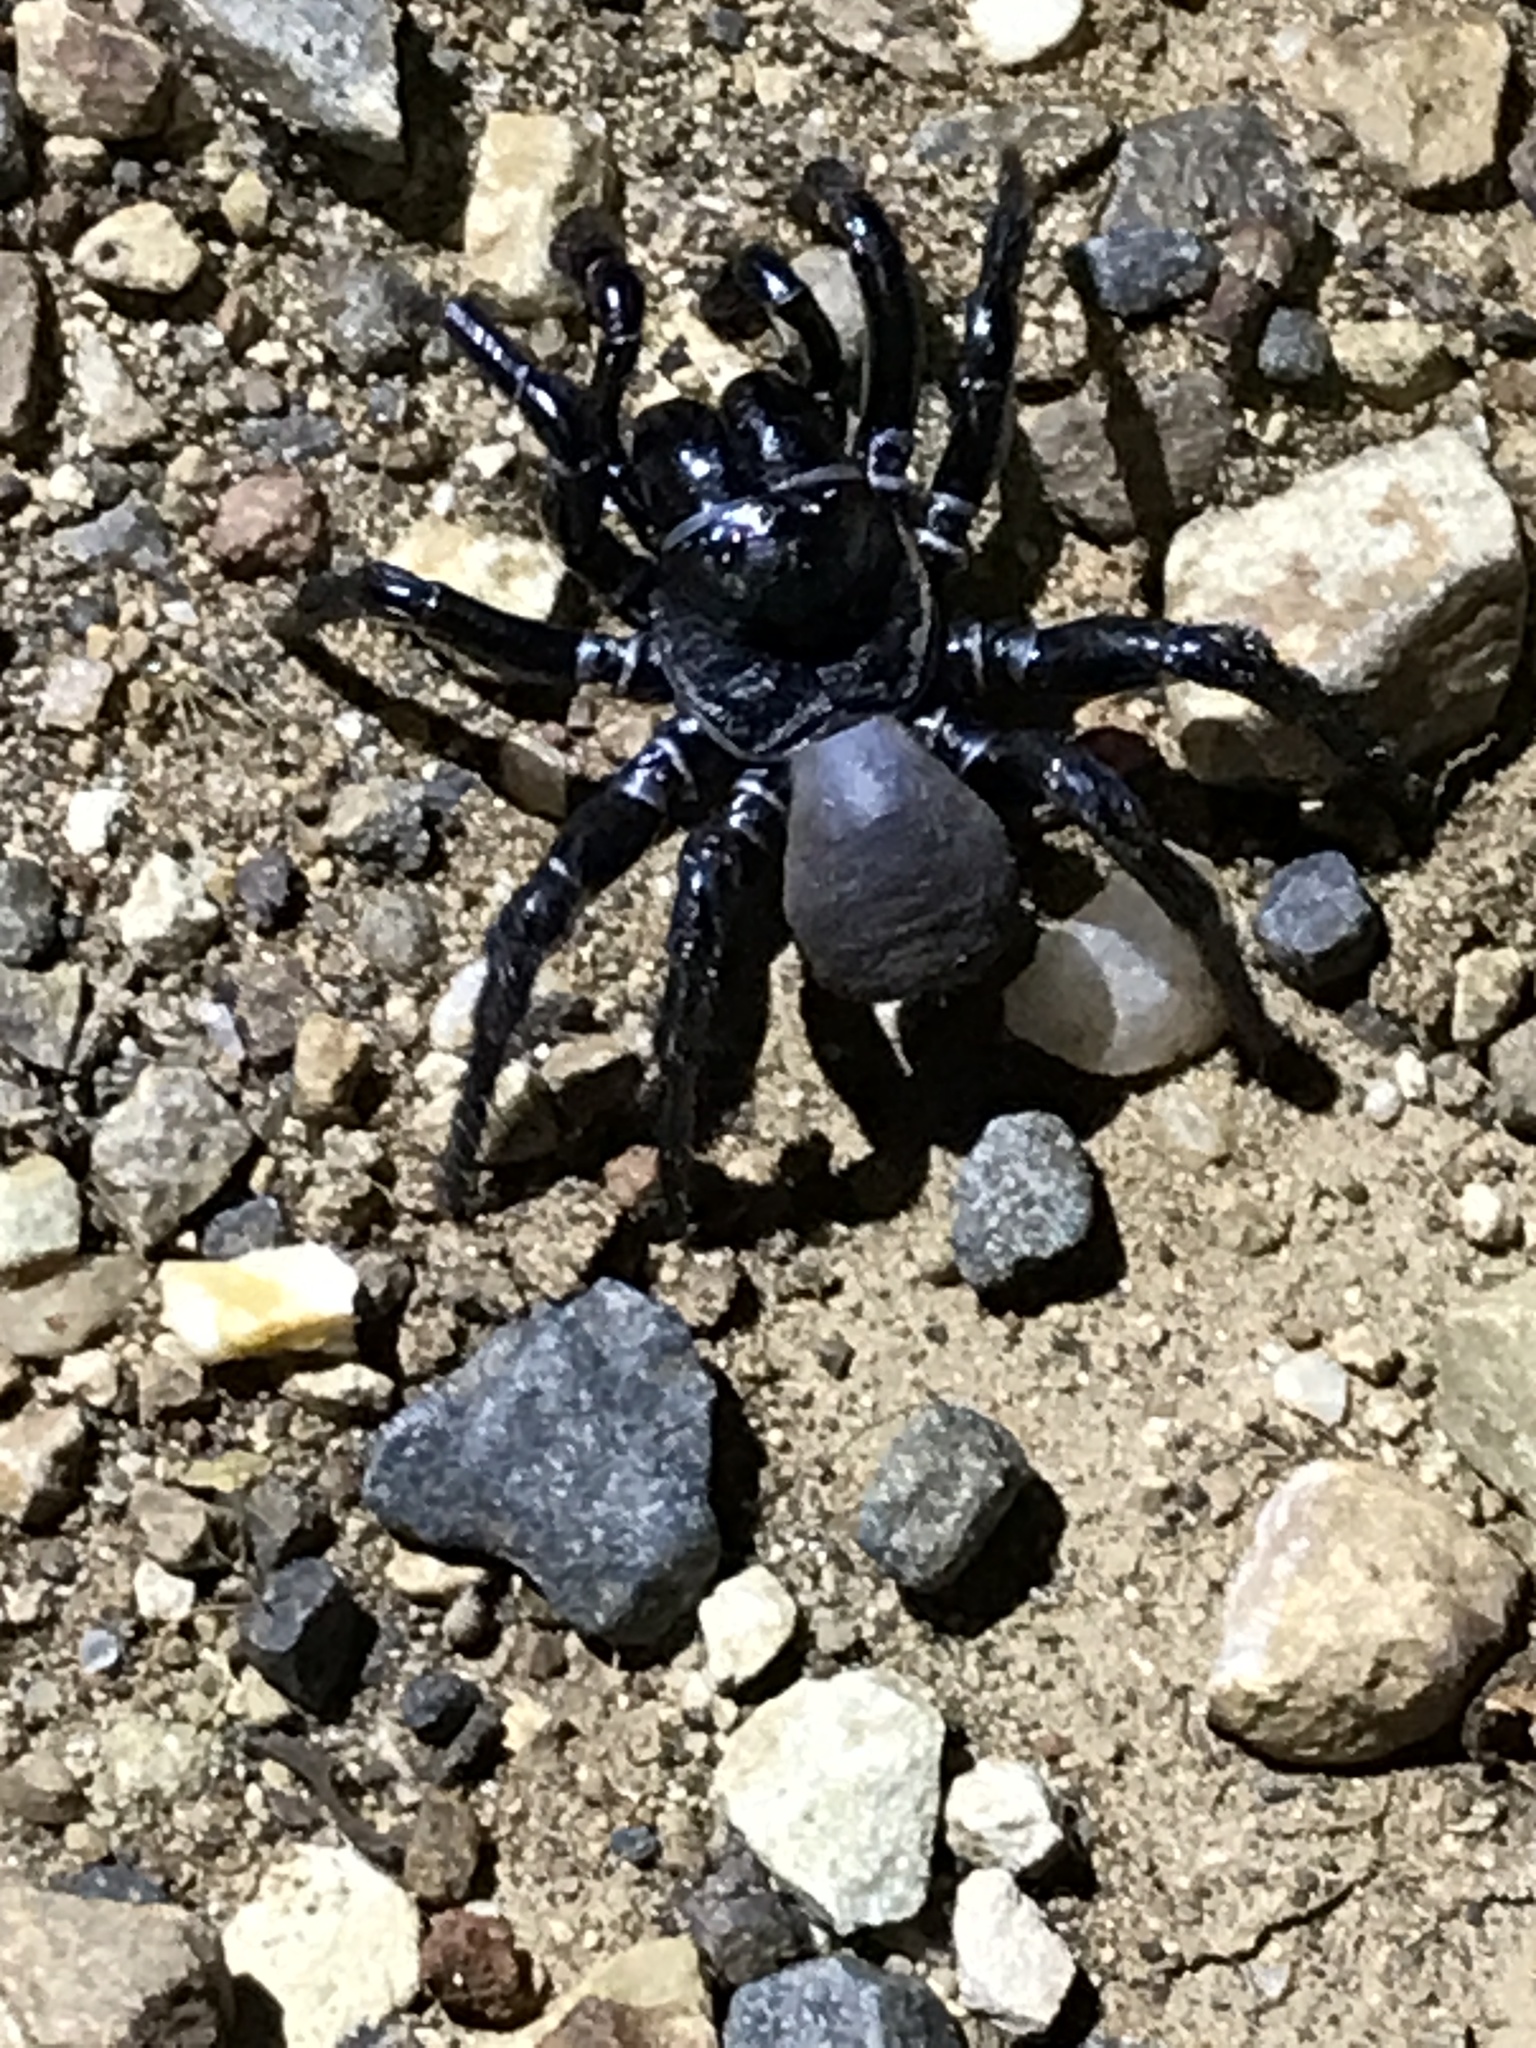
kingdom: Animalia
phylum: Arthropoda
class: Arachnida
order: Araneae
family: Actinopodidae
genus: Missulena
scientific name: Missulena bradleyi
